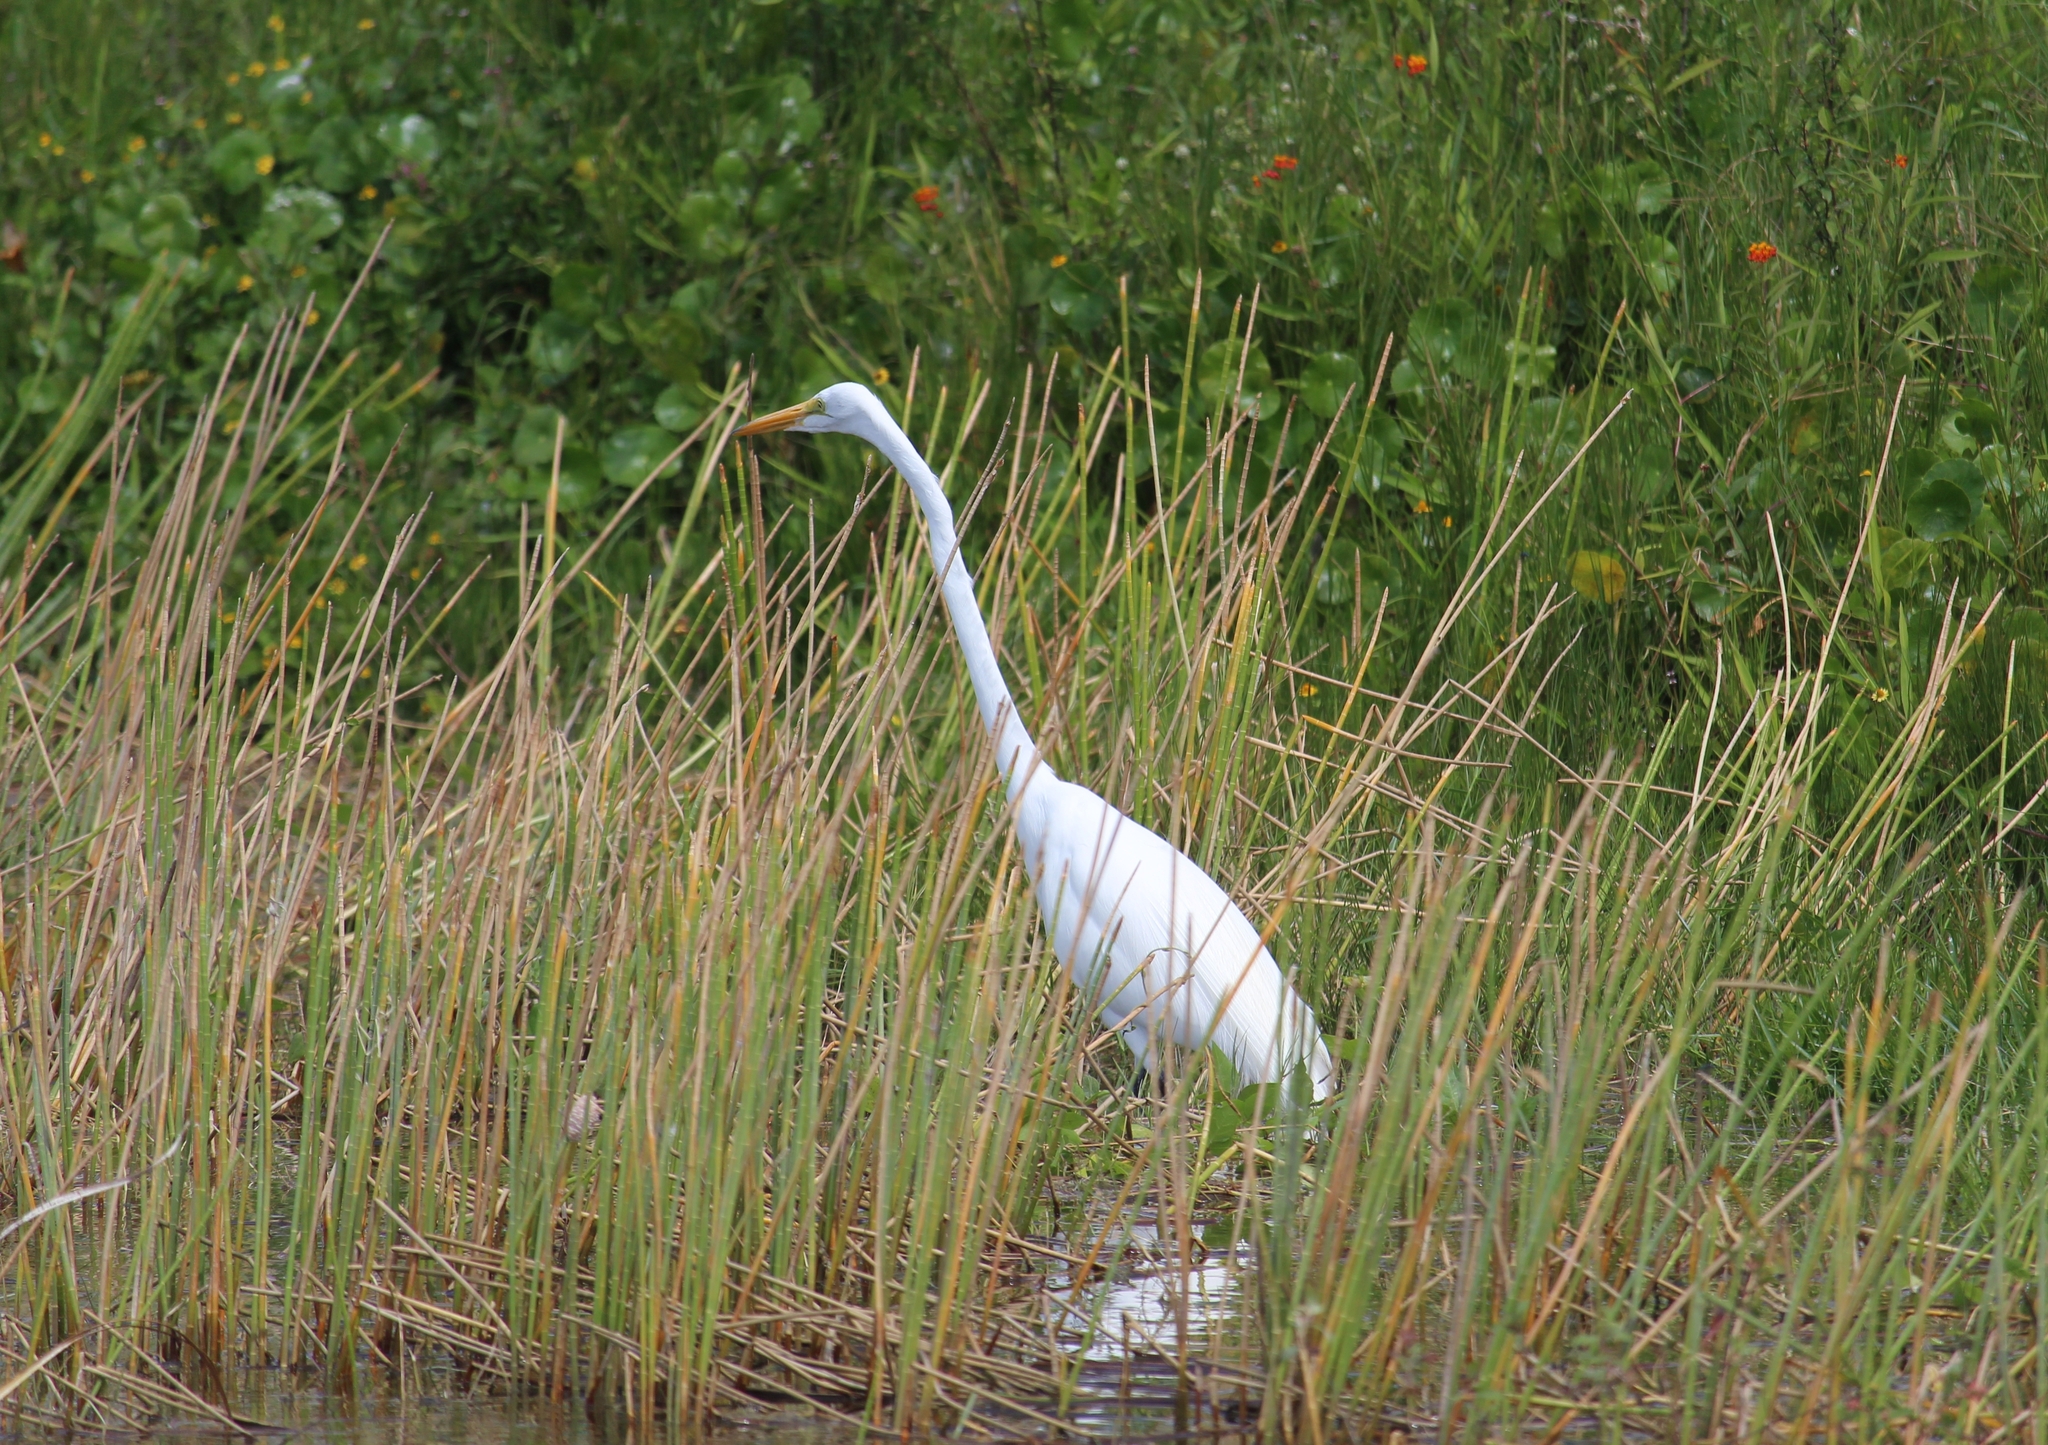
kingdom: Animalia
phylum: Chordata
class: Aves
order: Pelecaniformes
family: Ardeidae
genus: Ardea
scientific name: Ardea alba
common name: Great egret
